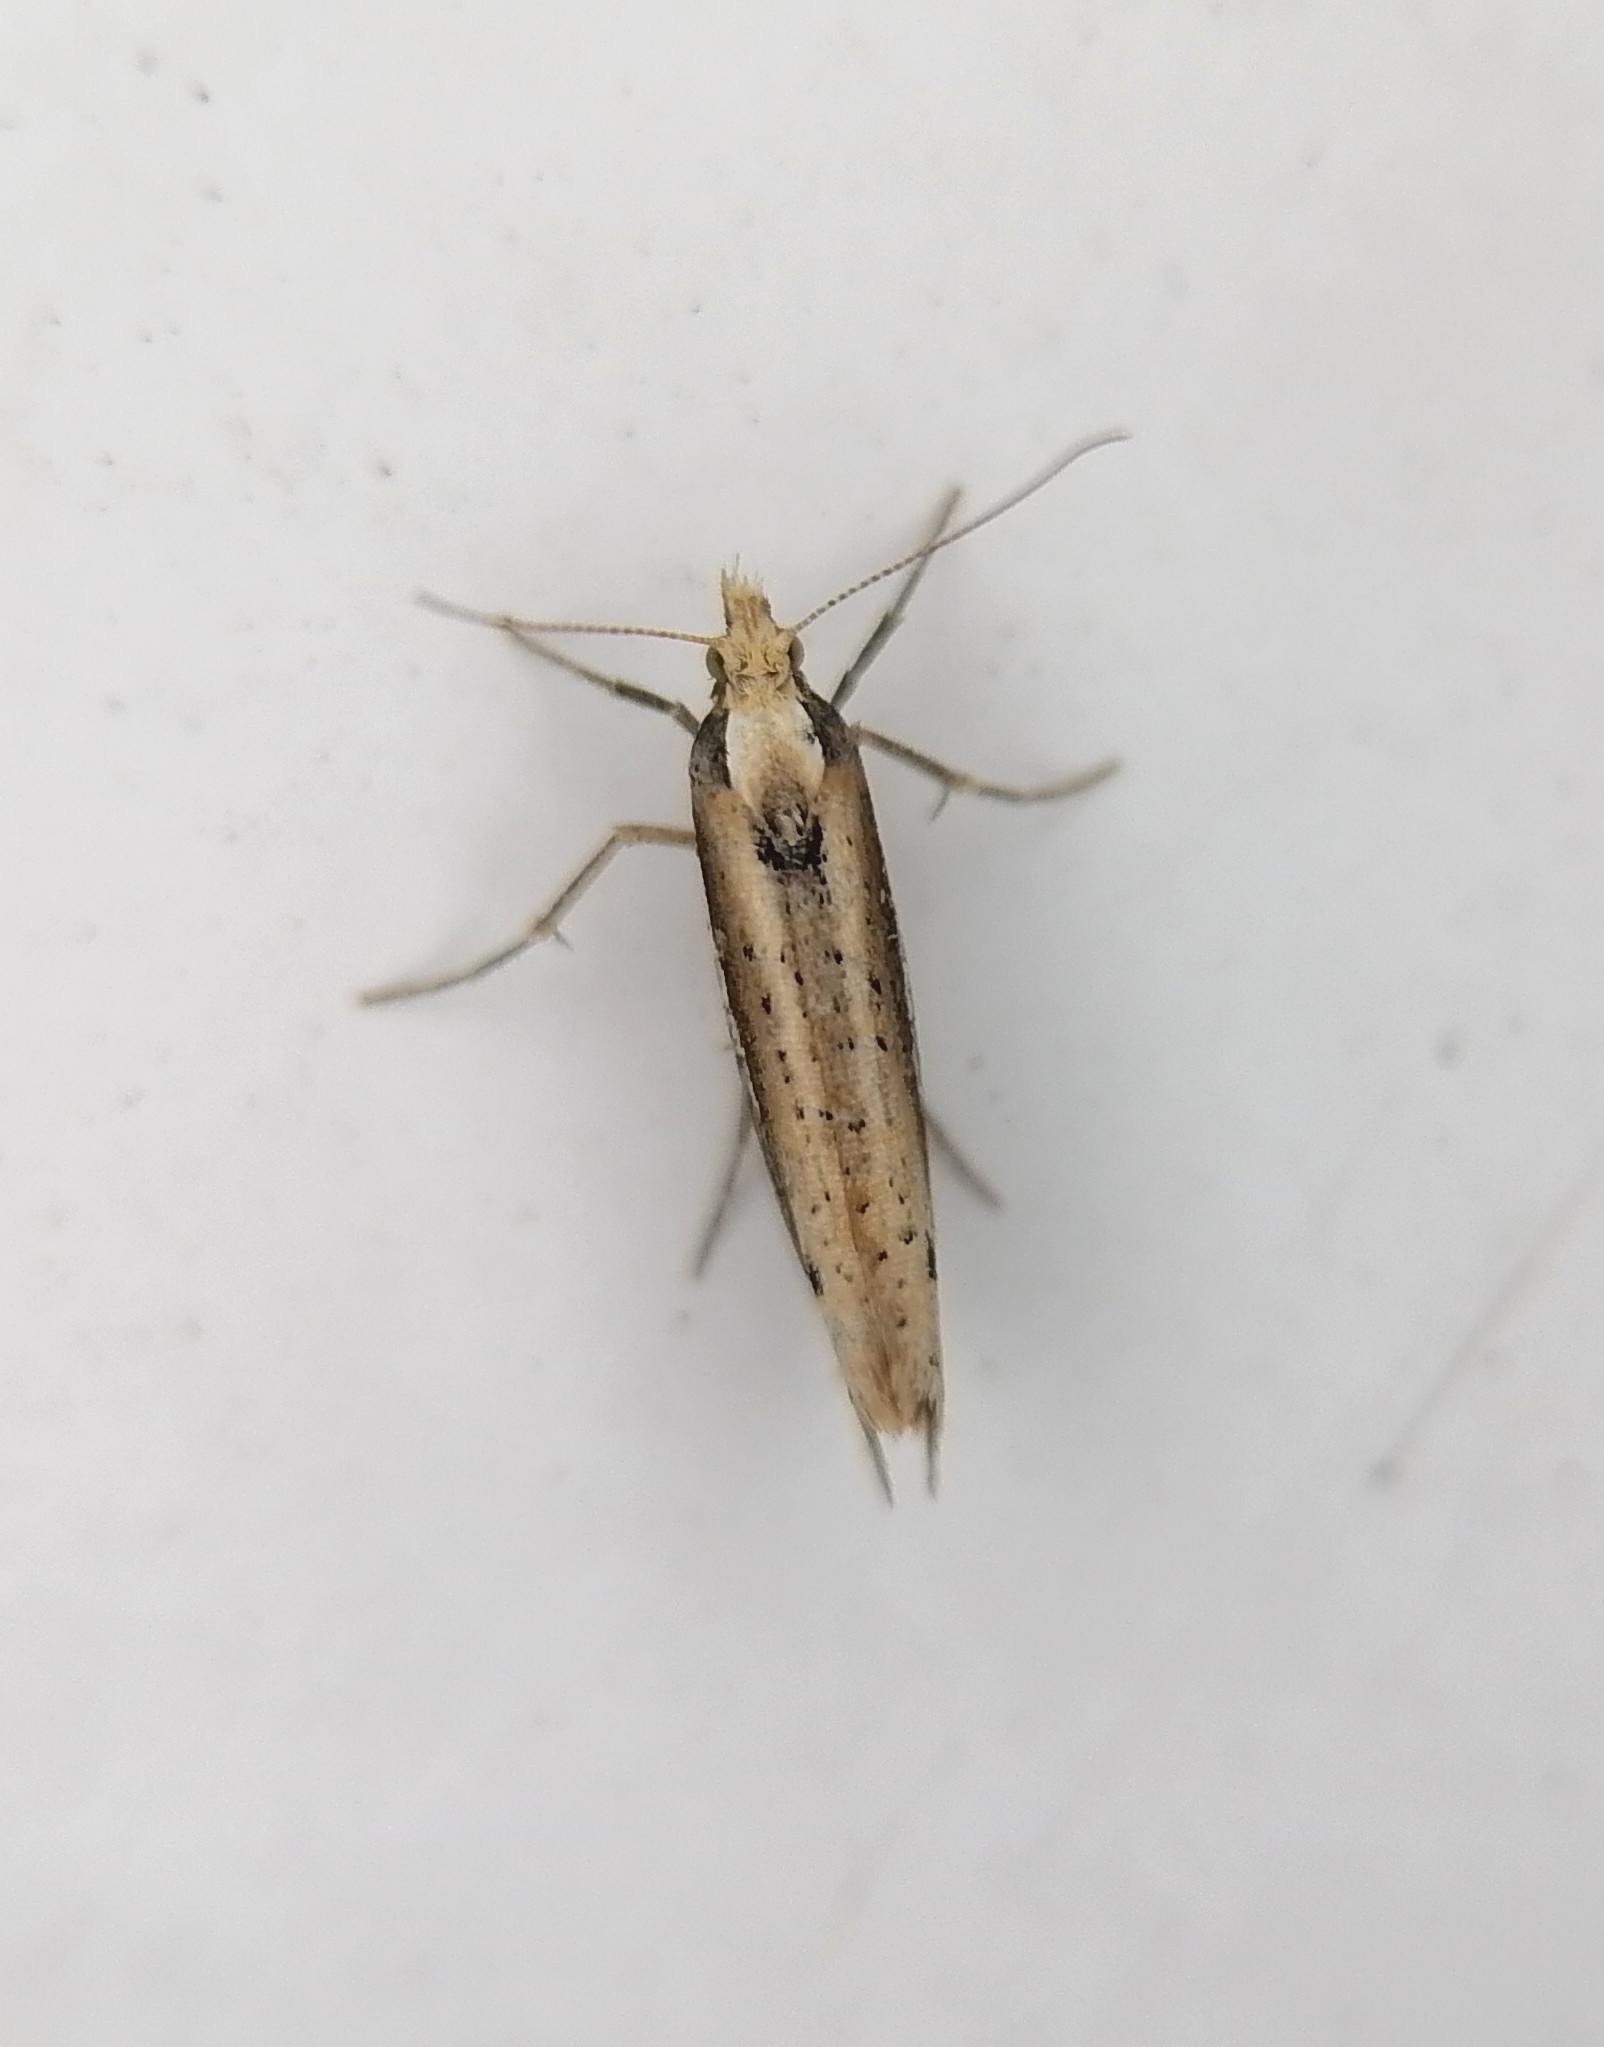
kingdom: Animalia
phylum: Arthropoda
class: Insecta
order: Lepidoptera
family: Ypsolophidae
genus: Ypsolopha
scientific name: Ypsolopha parenthesella
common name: White-shouldered smudge
